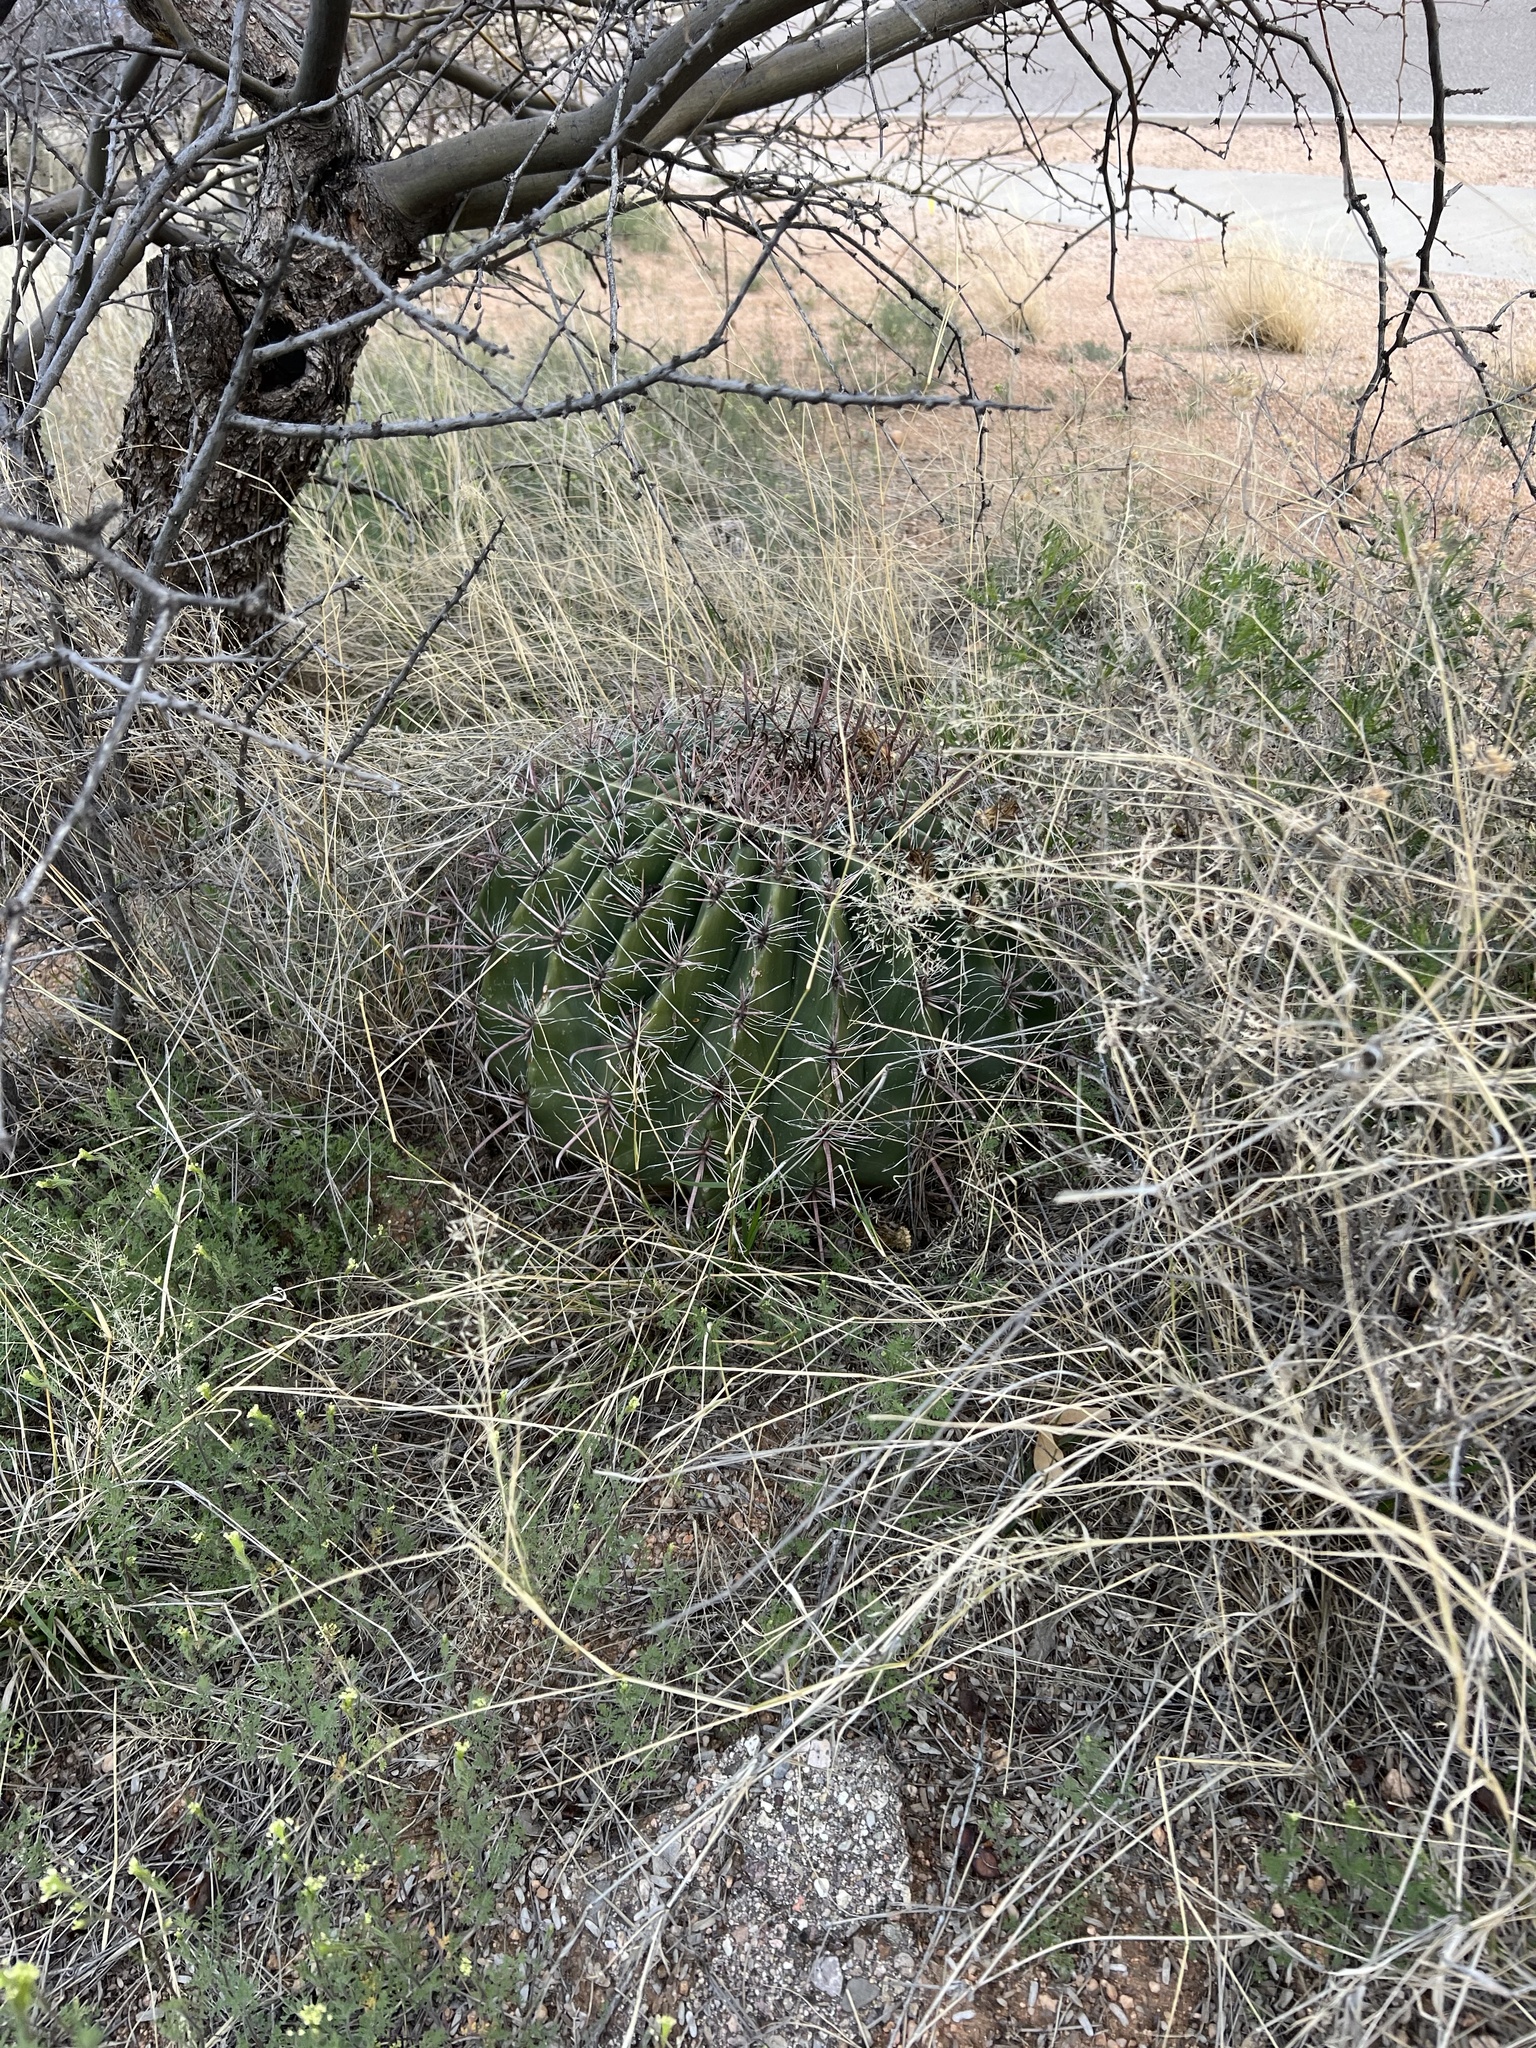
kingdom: Plantae
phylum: Tracheophyta
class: Magnoliopsida
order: Caryophyllales
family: Cactaceae
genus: Ferocactus
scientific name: Ferocactus wislizeni
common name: Candy barrel cactus
